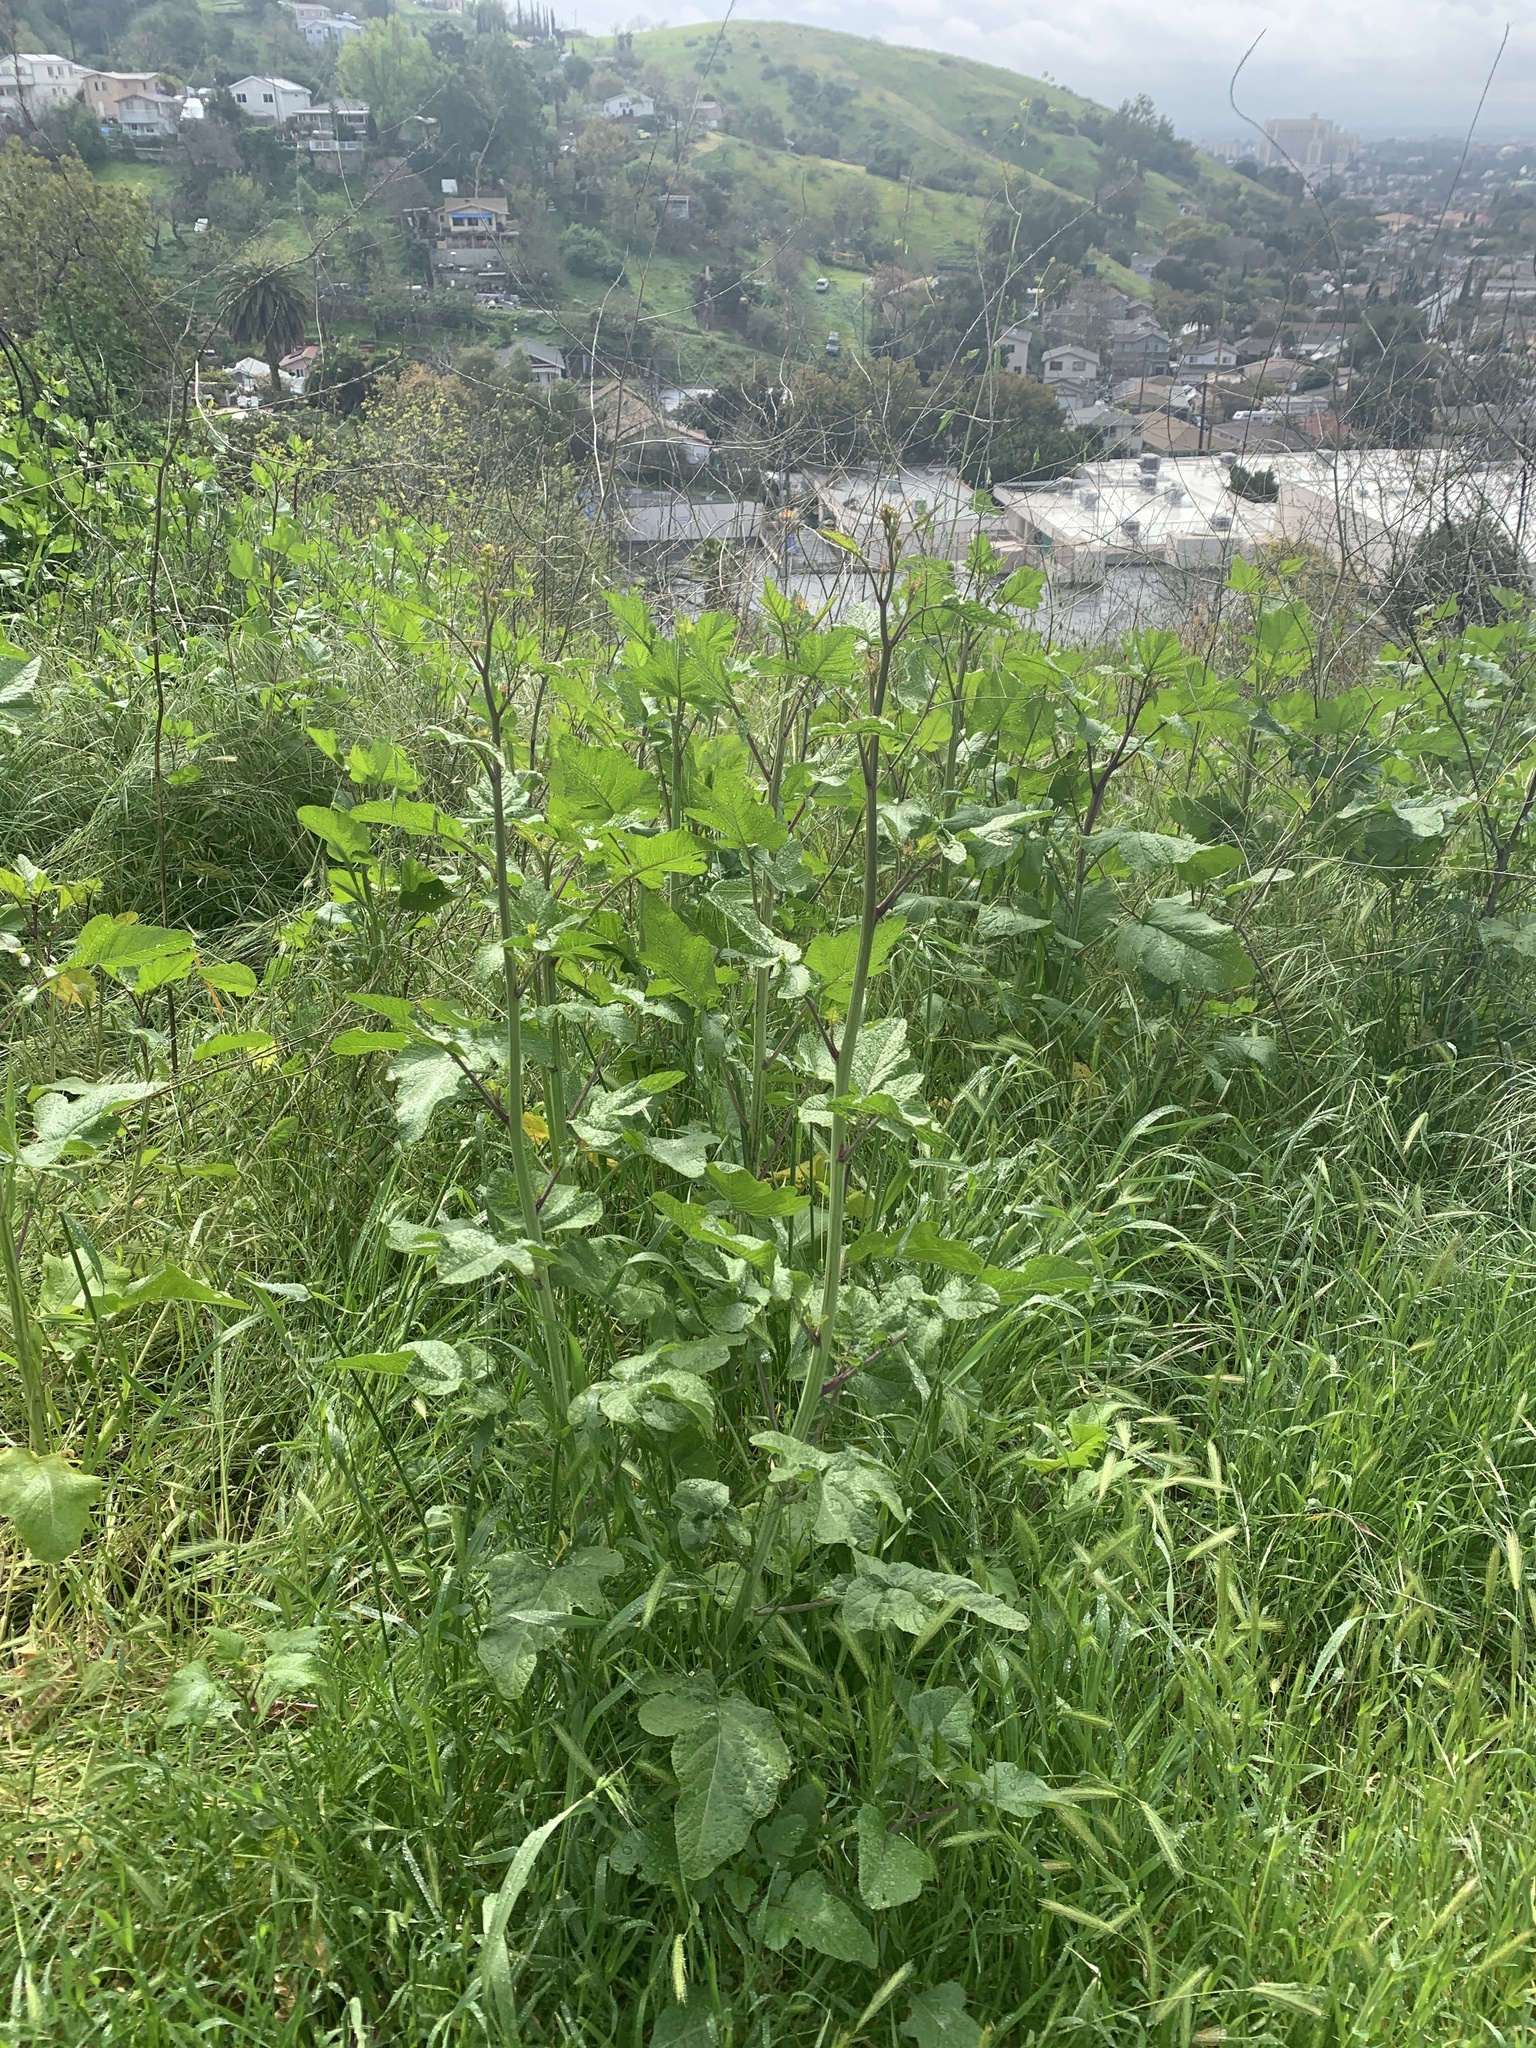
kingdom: Plantae
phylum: Tracheophyta
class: Magnoliopsida
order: Brassicales
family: Brassicaceae
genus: Brassica
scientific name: Brassica nigra
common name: Black mustard
